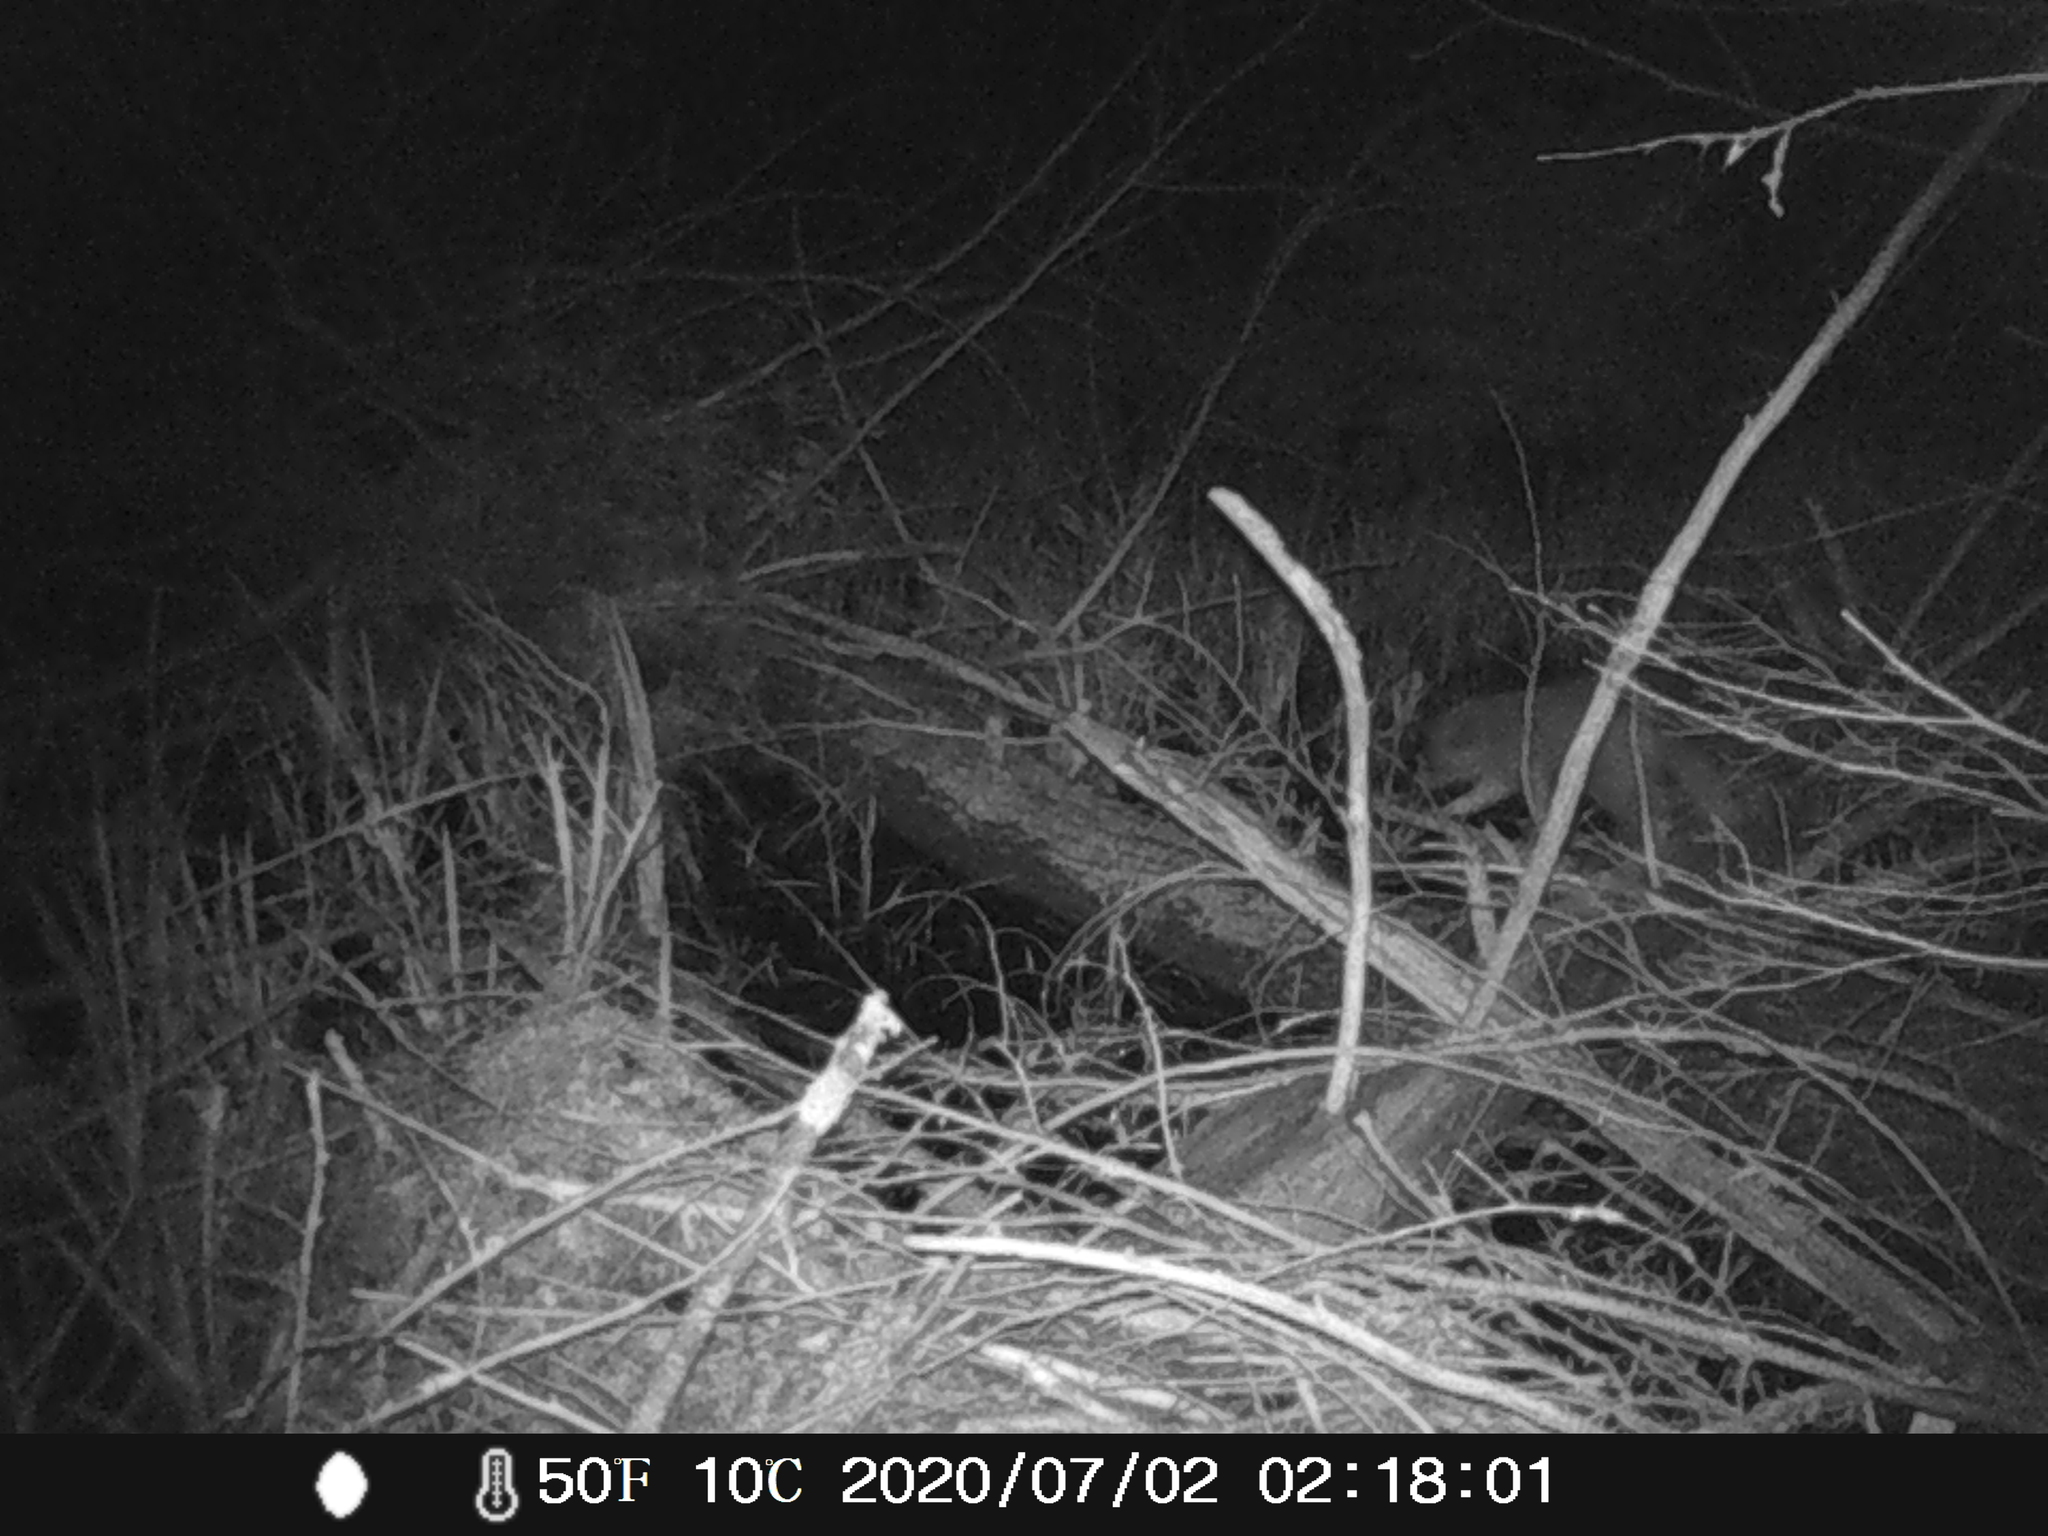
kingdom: Animalia
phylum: Chordata
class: Mammalia
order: Carnivora
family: Procyonidae
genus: Procyon
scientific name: Procyon lotor
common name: Raccoon
